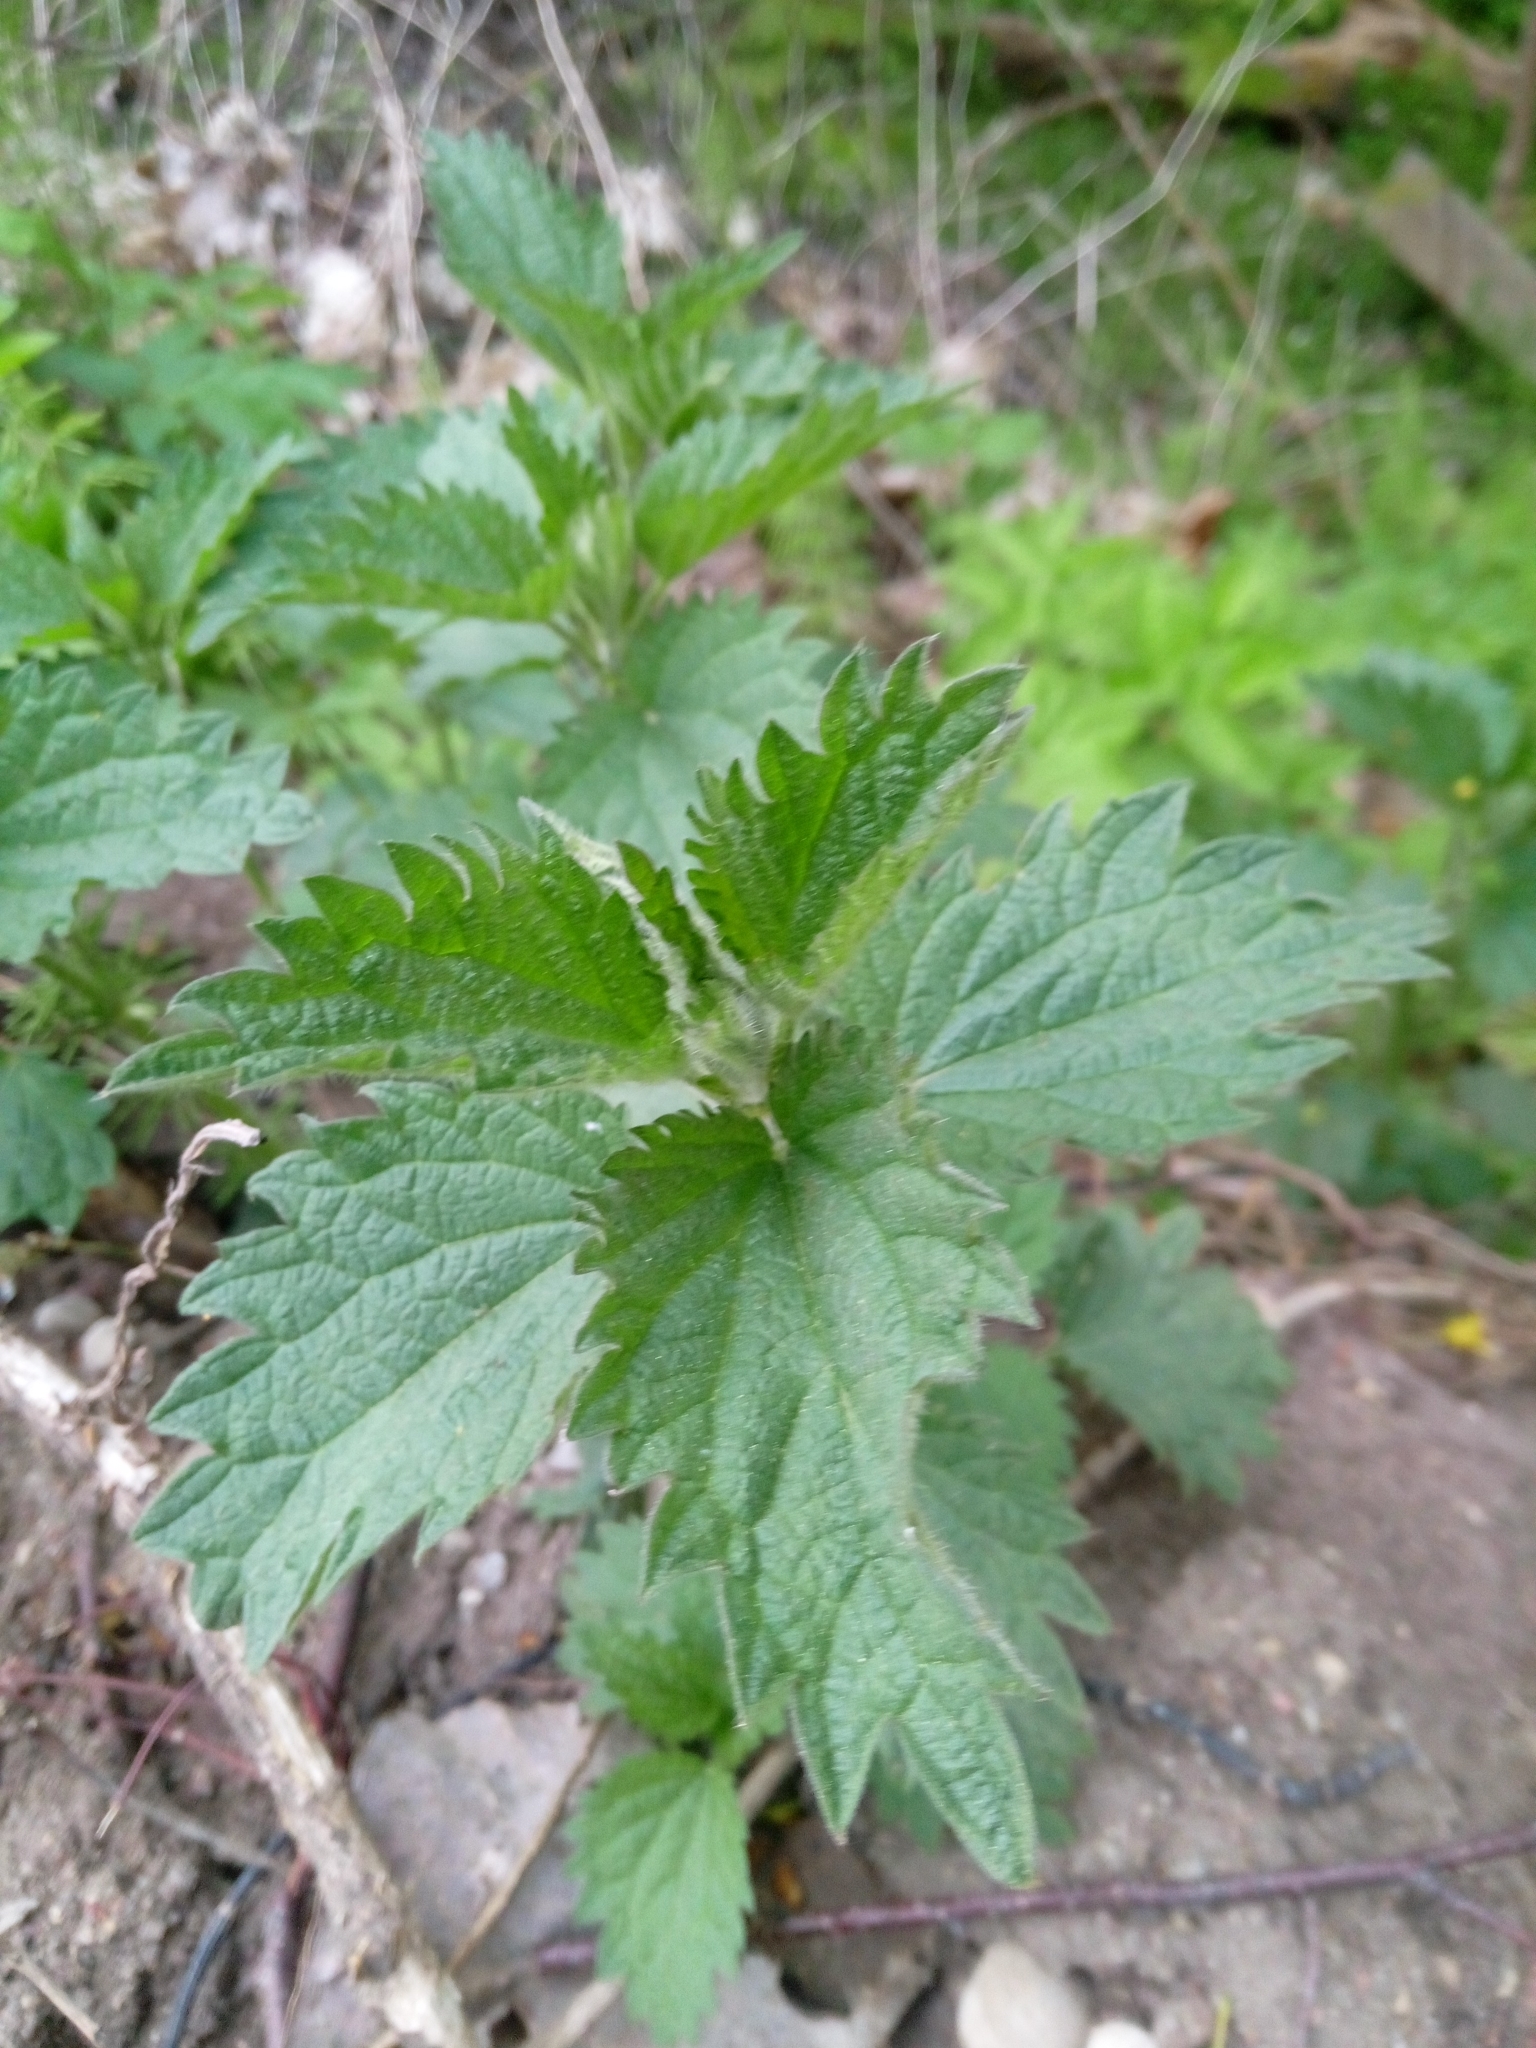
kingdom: Plantae
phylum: Tracheophyta
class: Magnoliopsida
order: Rosales
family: Urticaceae
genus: Urtica
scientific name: Urtica dioica
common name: Common nettle
